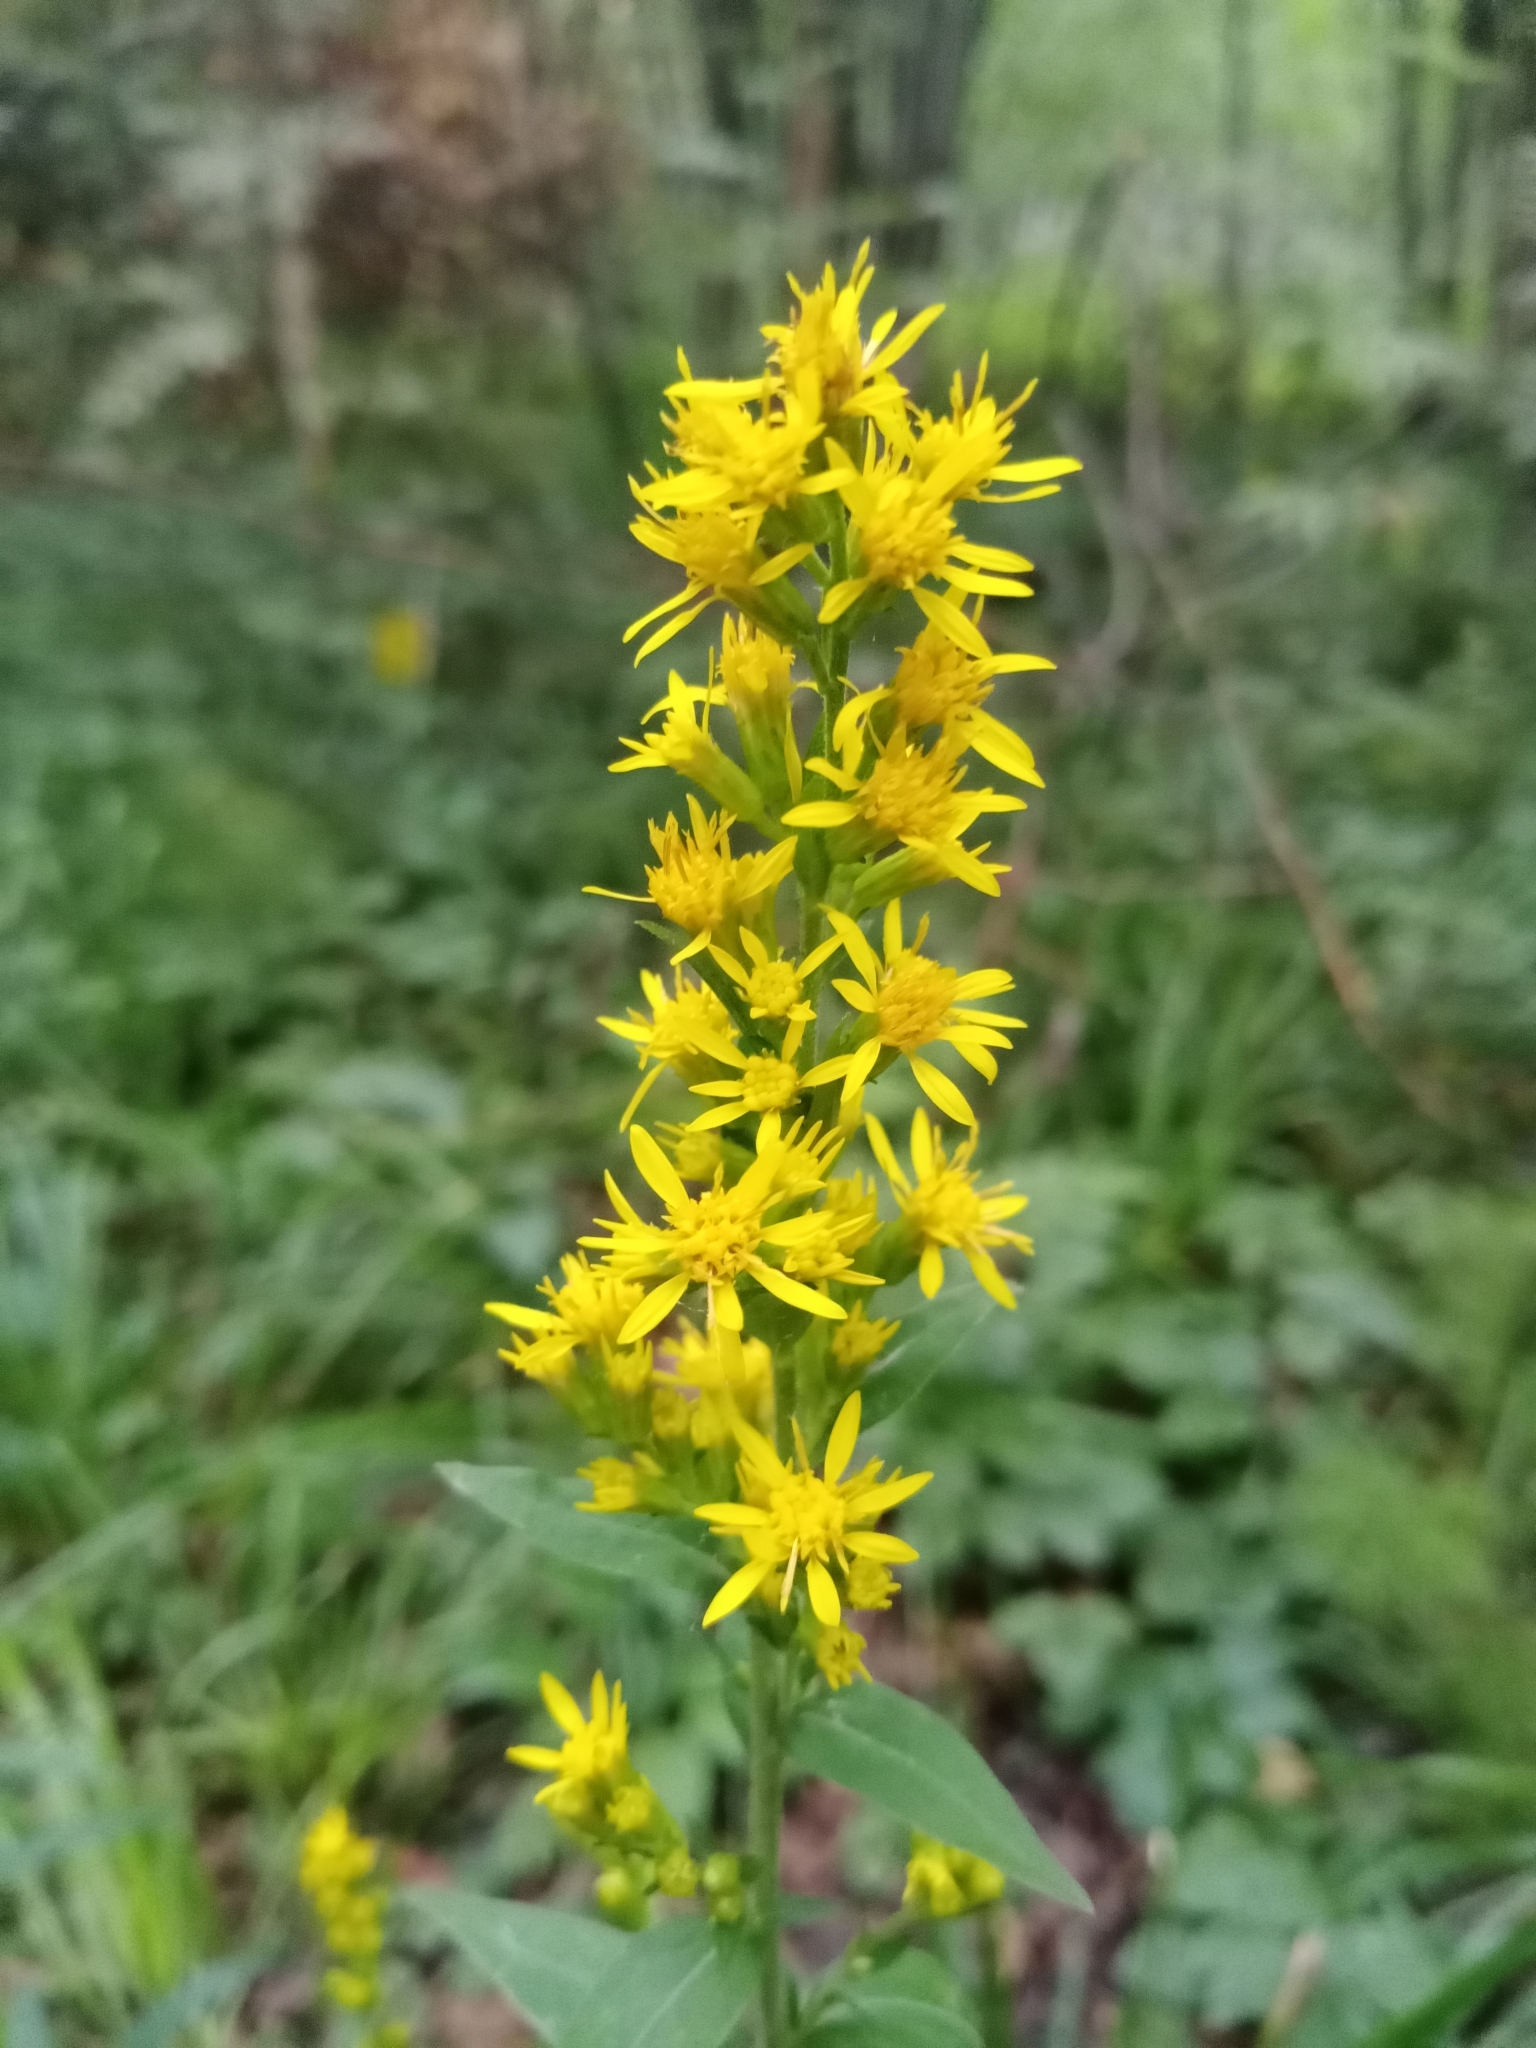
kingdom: Plantae
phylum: Tracheophyta
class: Magnoliopsida
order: Asterales
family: Asteraceae
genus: Solidago
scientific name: Solidago virgaurea
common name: Goldenrod
